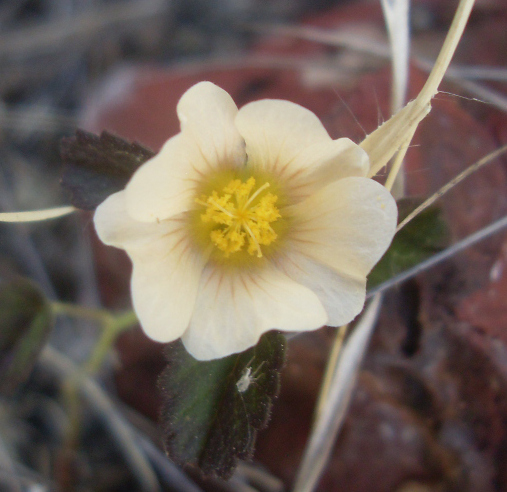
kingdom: Plantae
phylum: Tracheophyta
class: Magnoliopsida
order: Malvales
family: Malvaceae
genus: Sida
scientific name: Sida abutilifolia
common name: Spreading fanpetals
